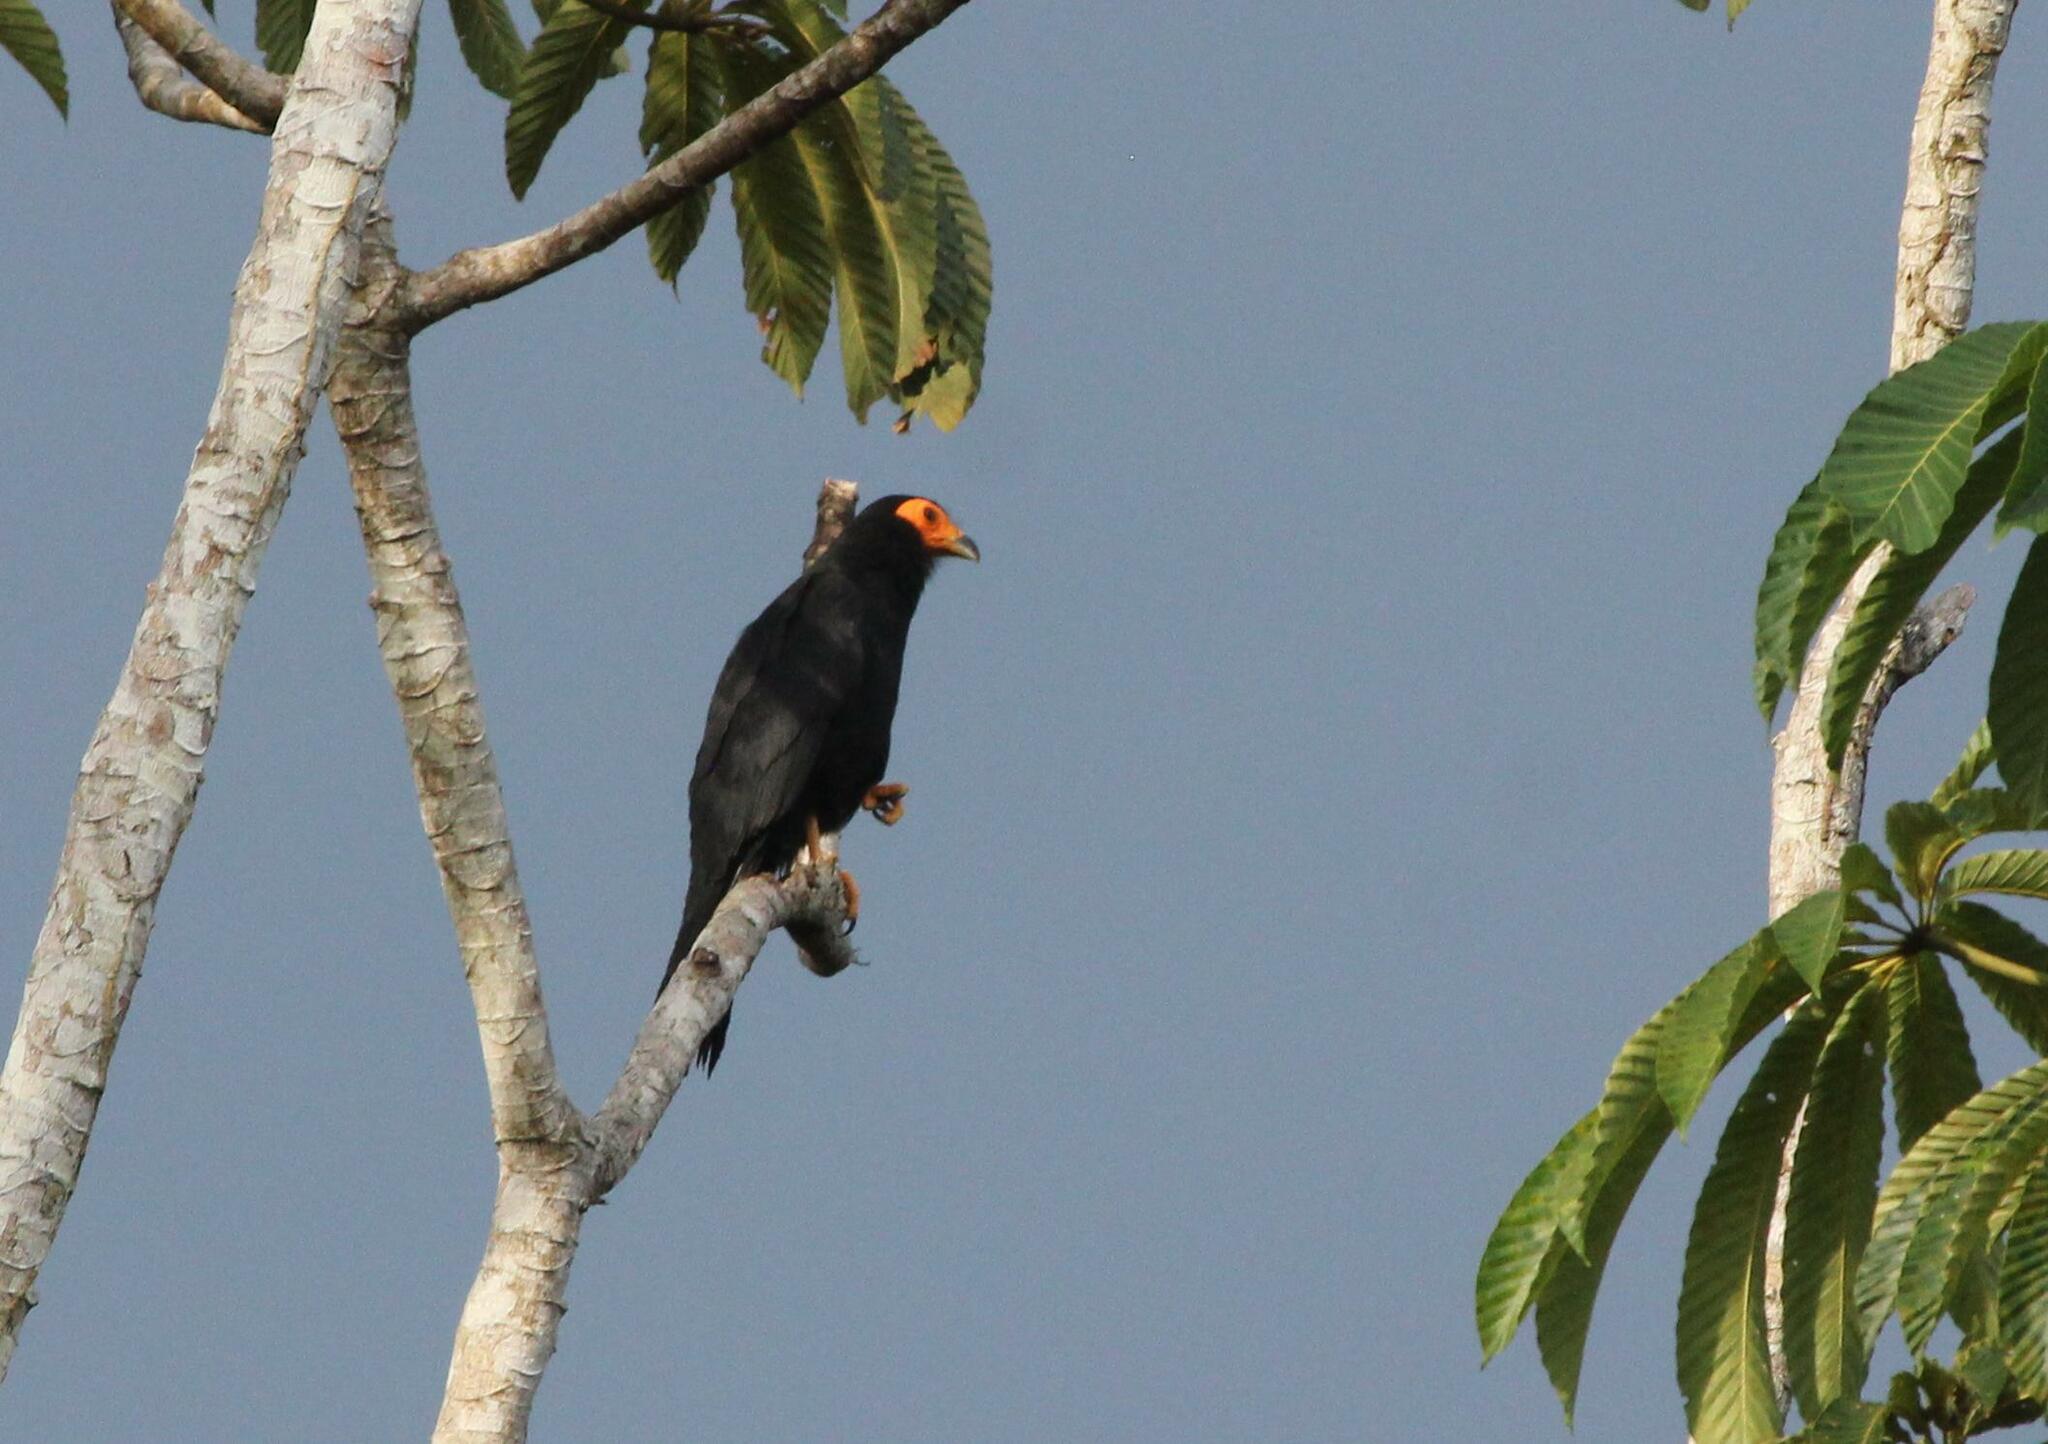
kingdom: Animalia
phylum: Chordata
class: Aves
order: Falconiformes
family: Falconidae
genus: Daptrius
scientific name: Daptrius ater
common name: Black caracara
